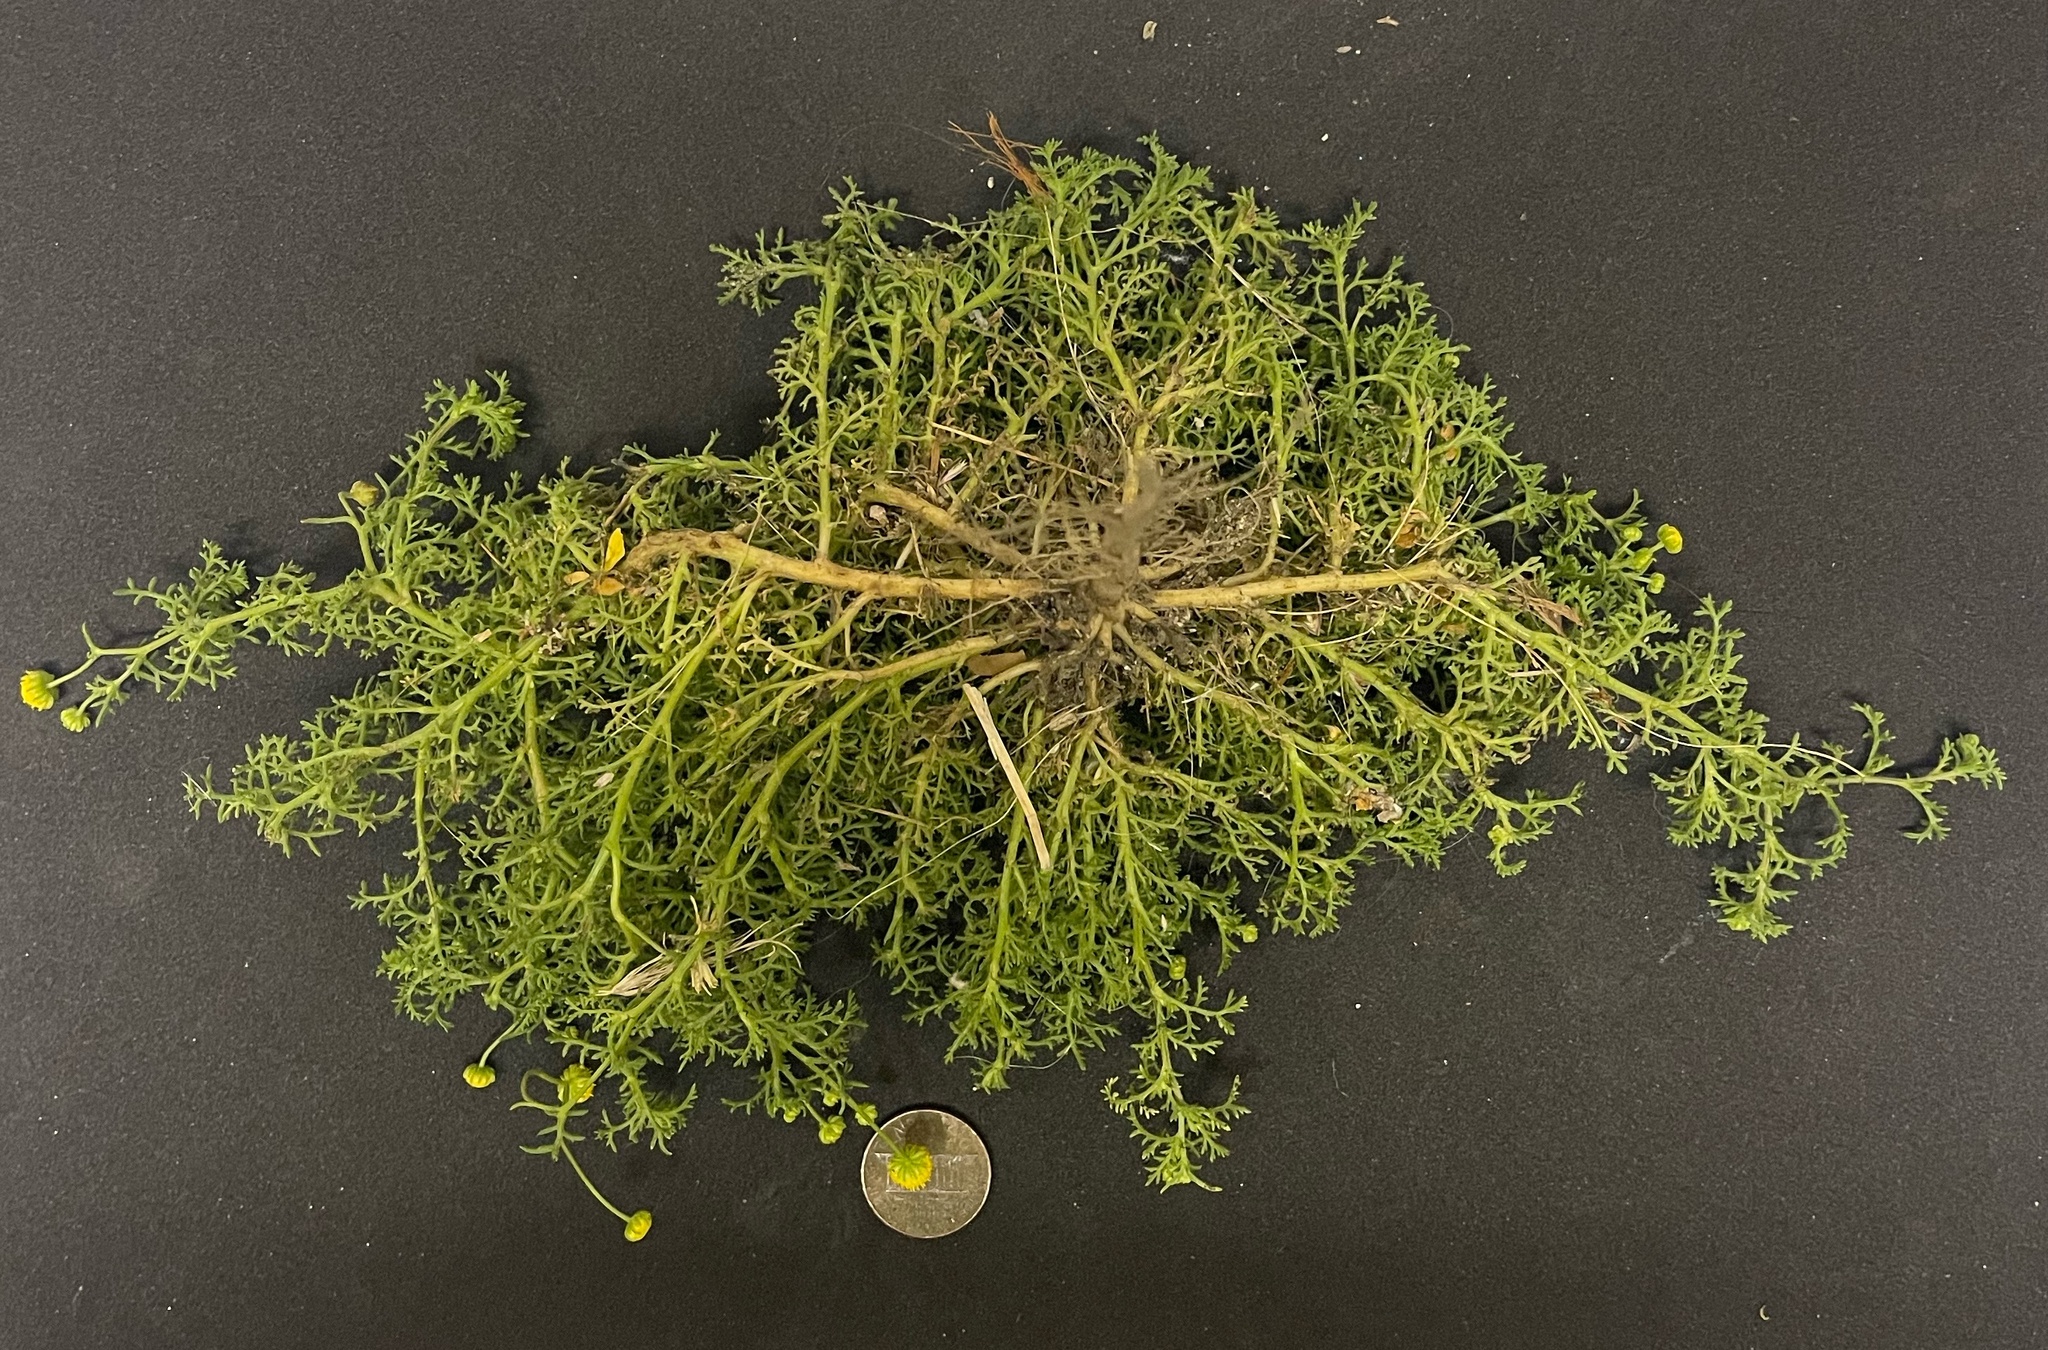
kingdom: Plantae
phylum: Tracheophyta
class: Magnoliopsida
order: Asterales
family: Asteraceae
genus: Oncosiphon
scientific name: Oncosiphon pilulifer
